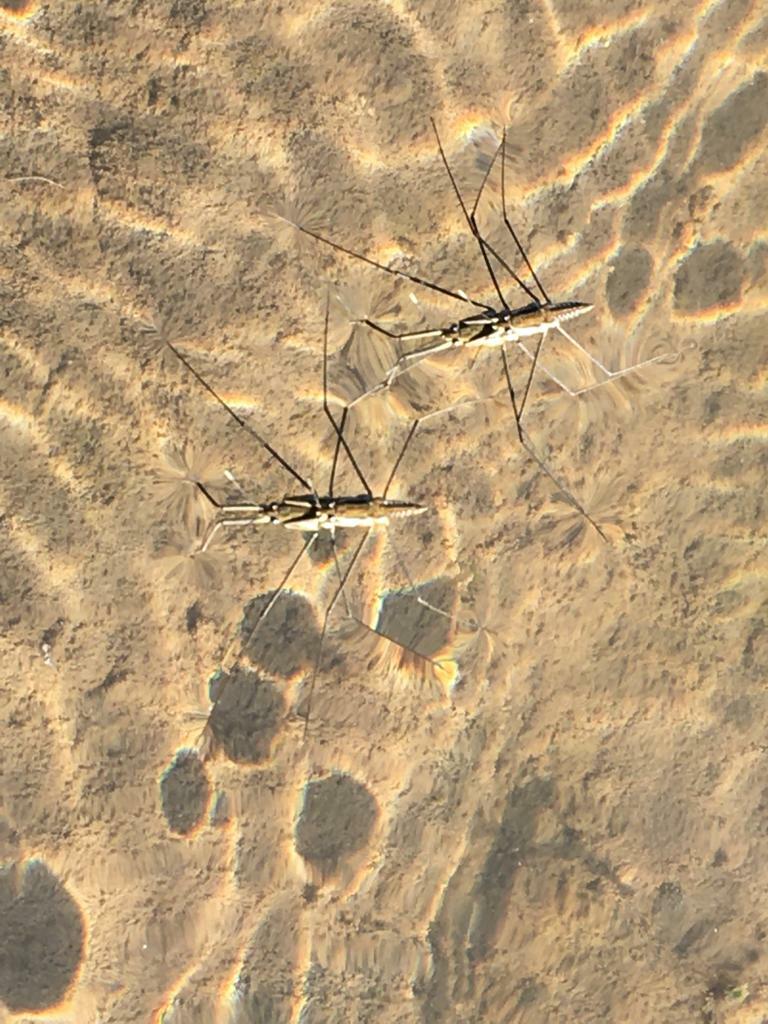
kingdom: Animalia
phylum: Arthropoda
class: Insecta
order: Hemiptera
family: Gerridae
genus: Aquarius
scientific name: Aquarius chilensis
